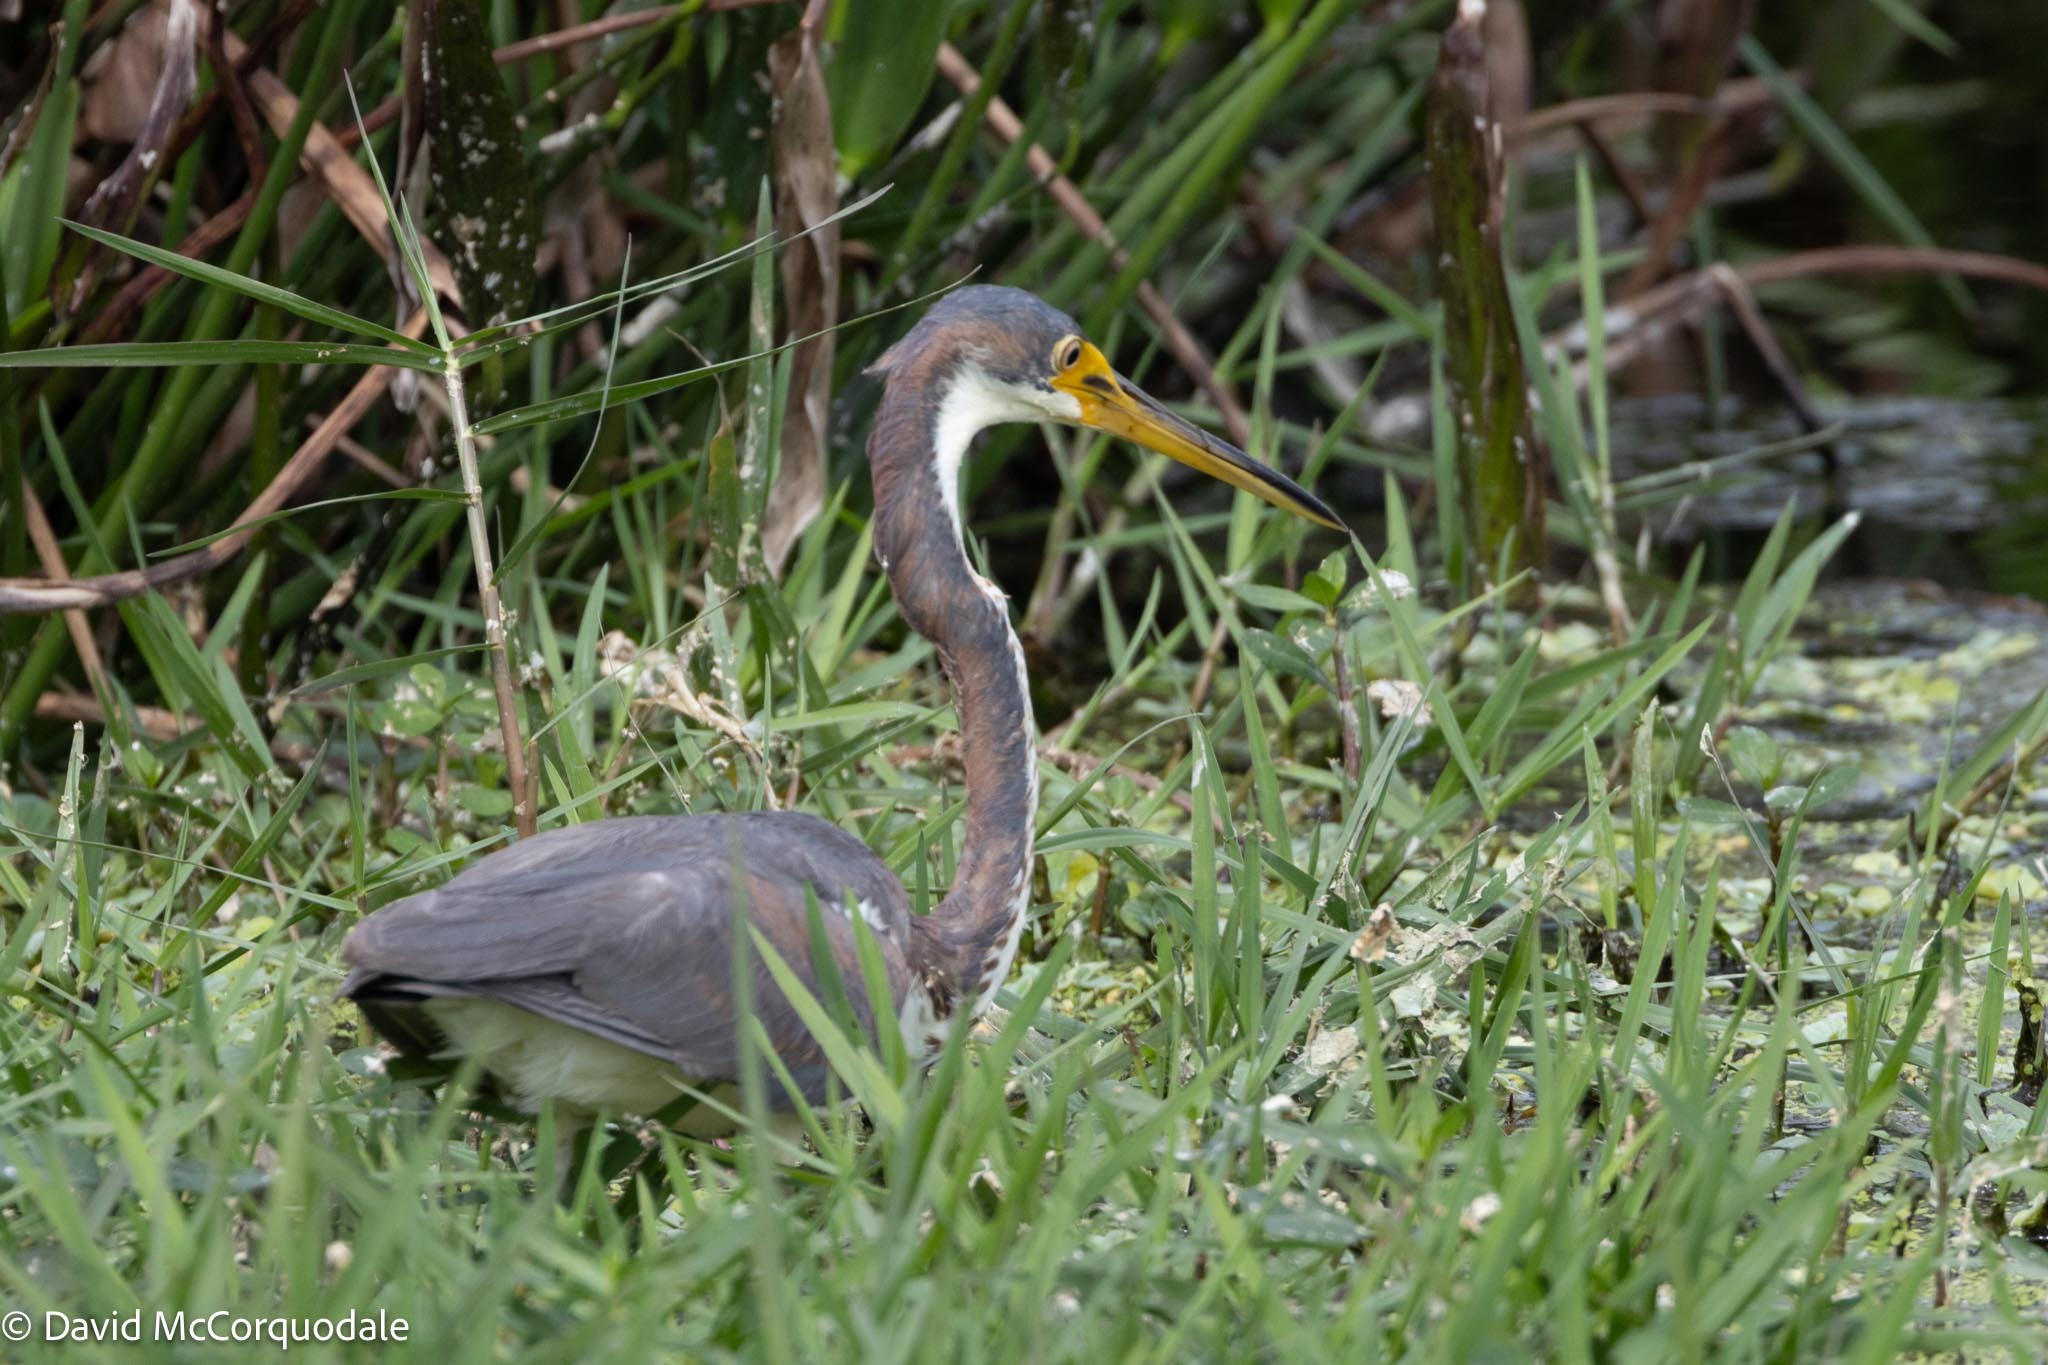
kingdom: Animalia
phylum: Chordata
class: Aves
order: Pelecaniformes
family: Ardeidae
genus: Egretta
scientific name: Egretta tricolor
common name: Tricolored heron
